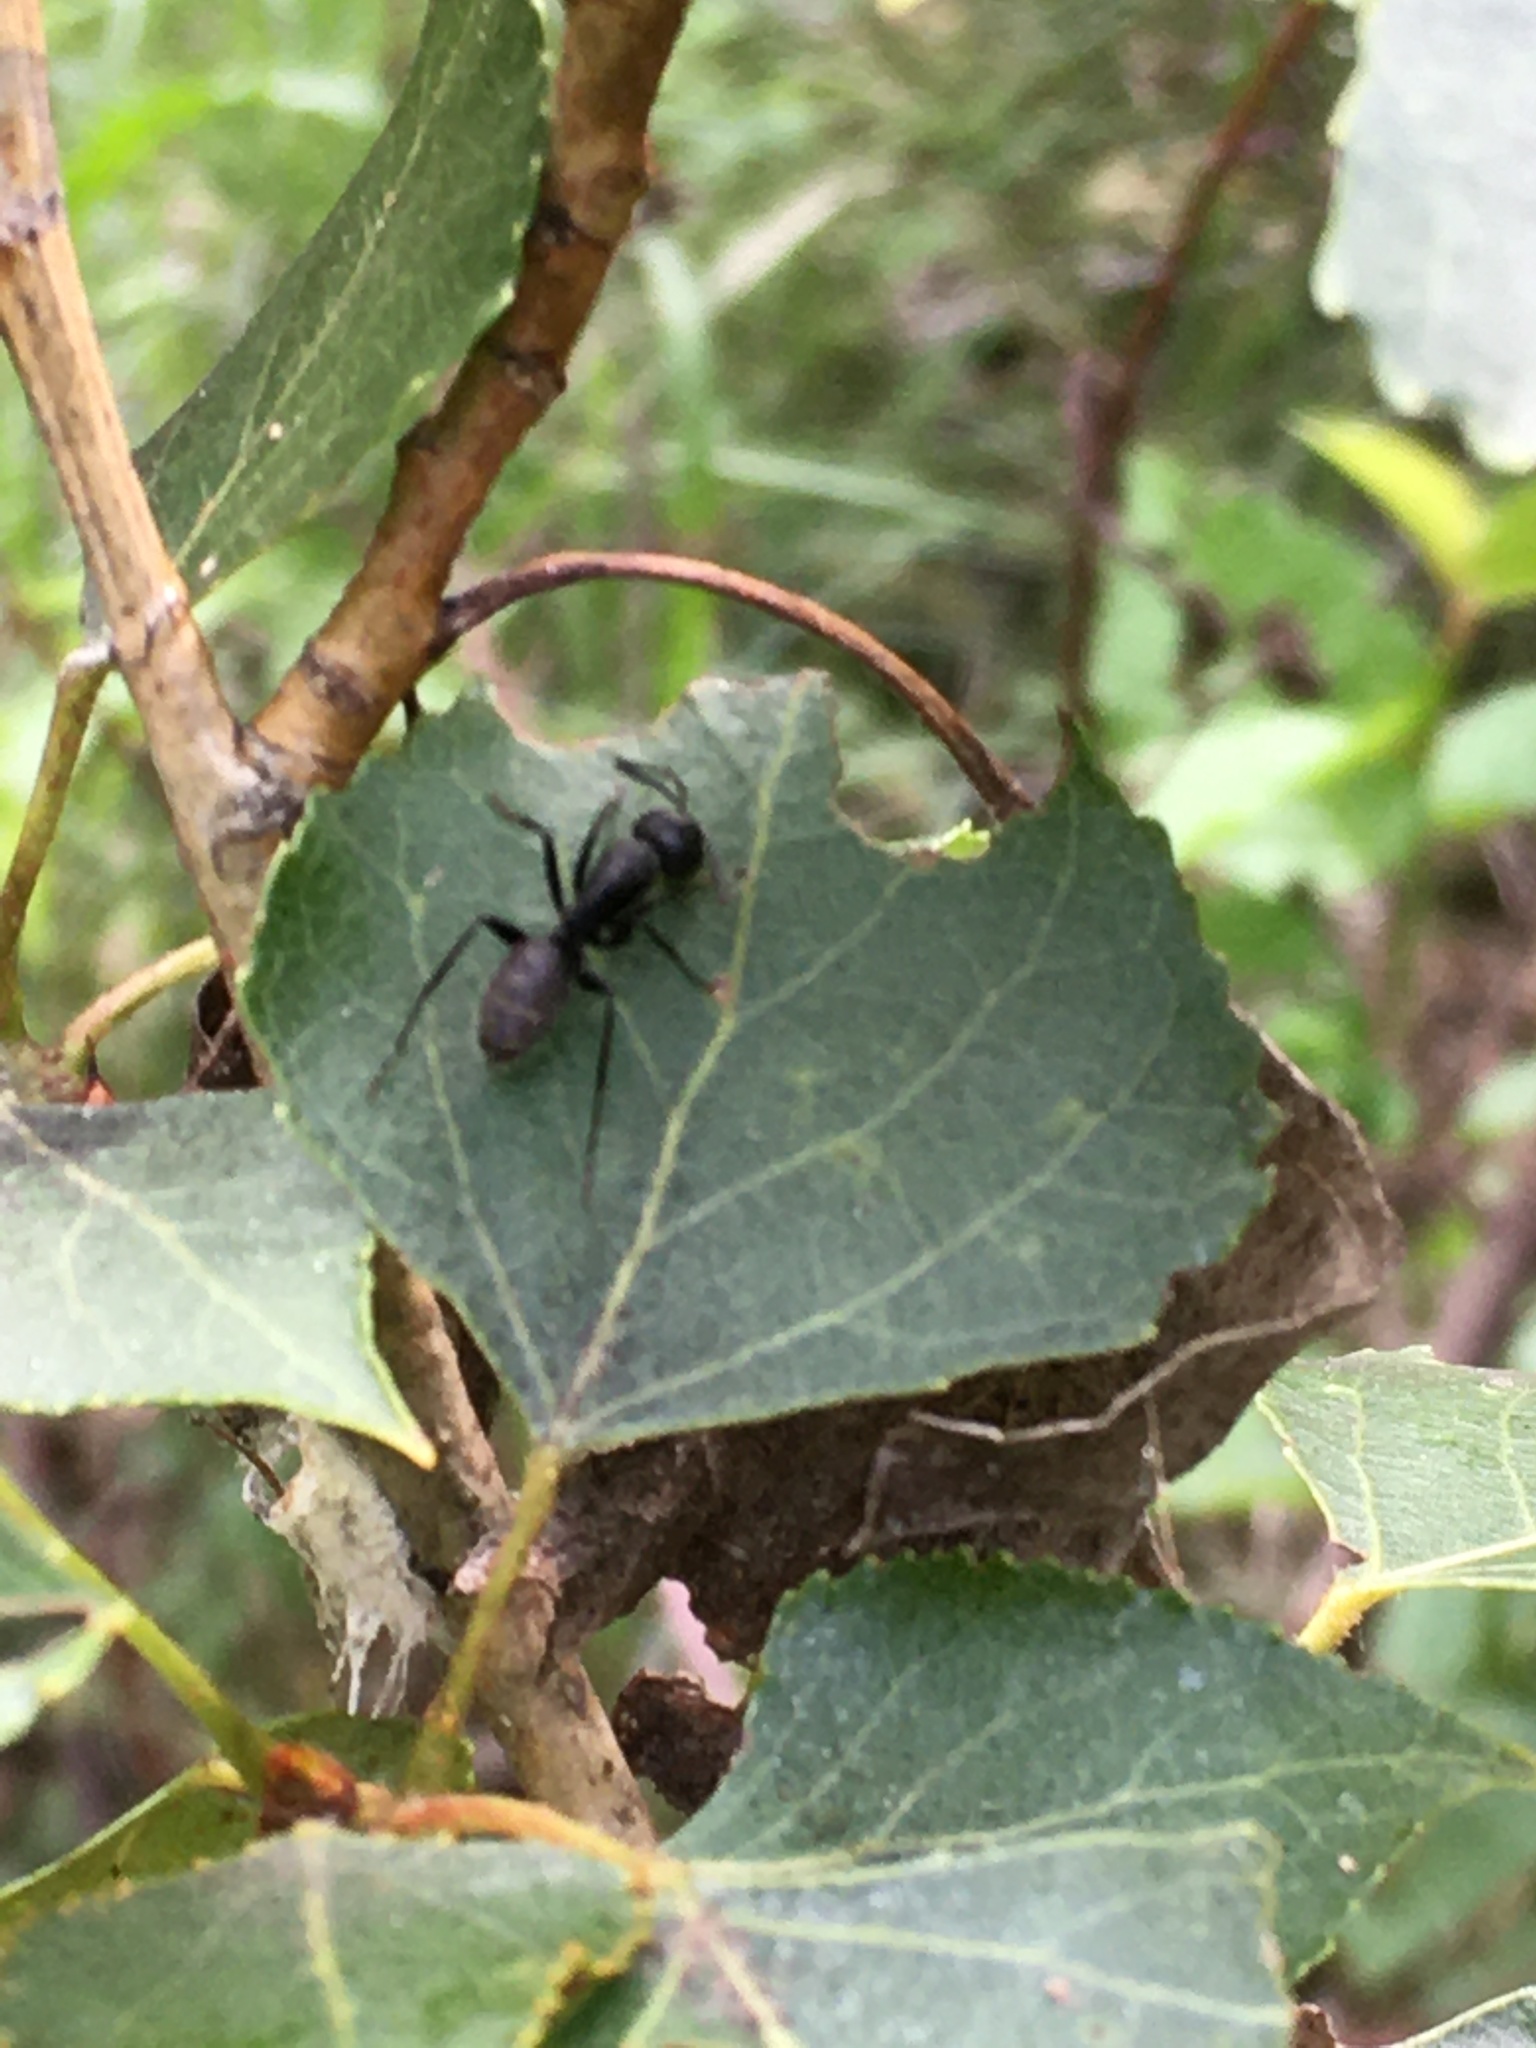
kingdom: Animalia
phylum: Arthropoda
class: Insecta
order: Hymenoptera
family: Formicidae
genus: Camponotus
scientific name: Camponotus vagus
